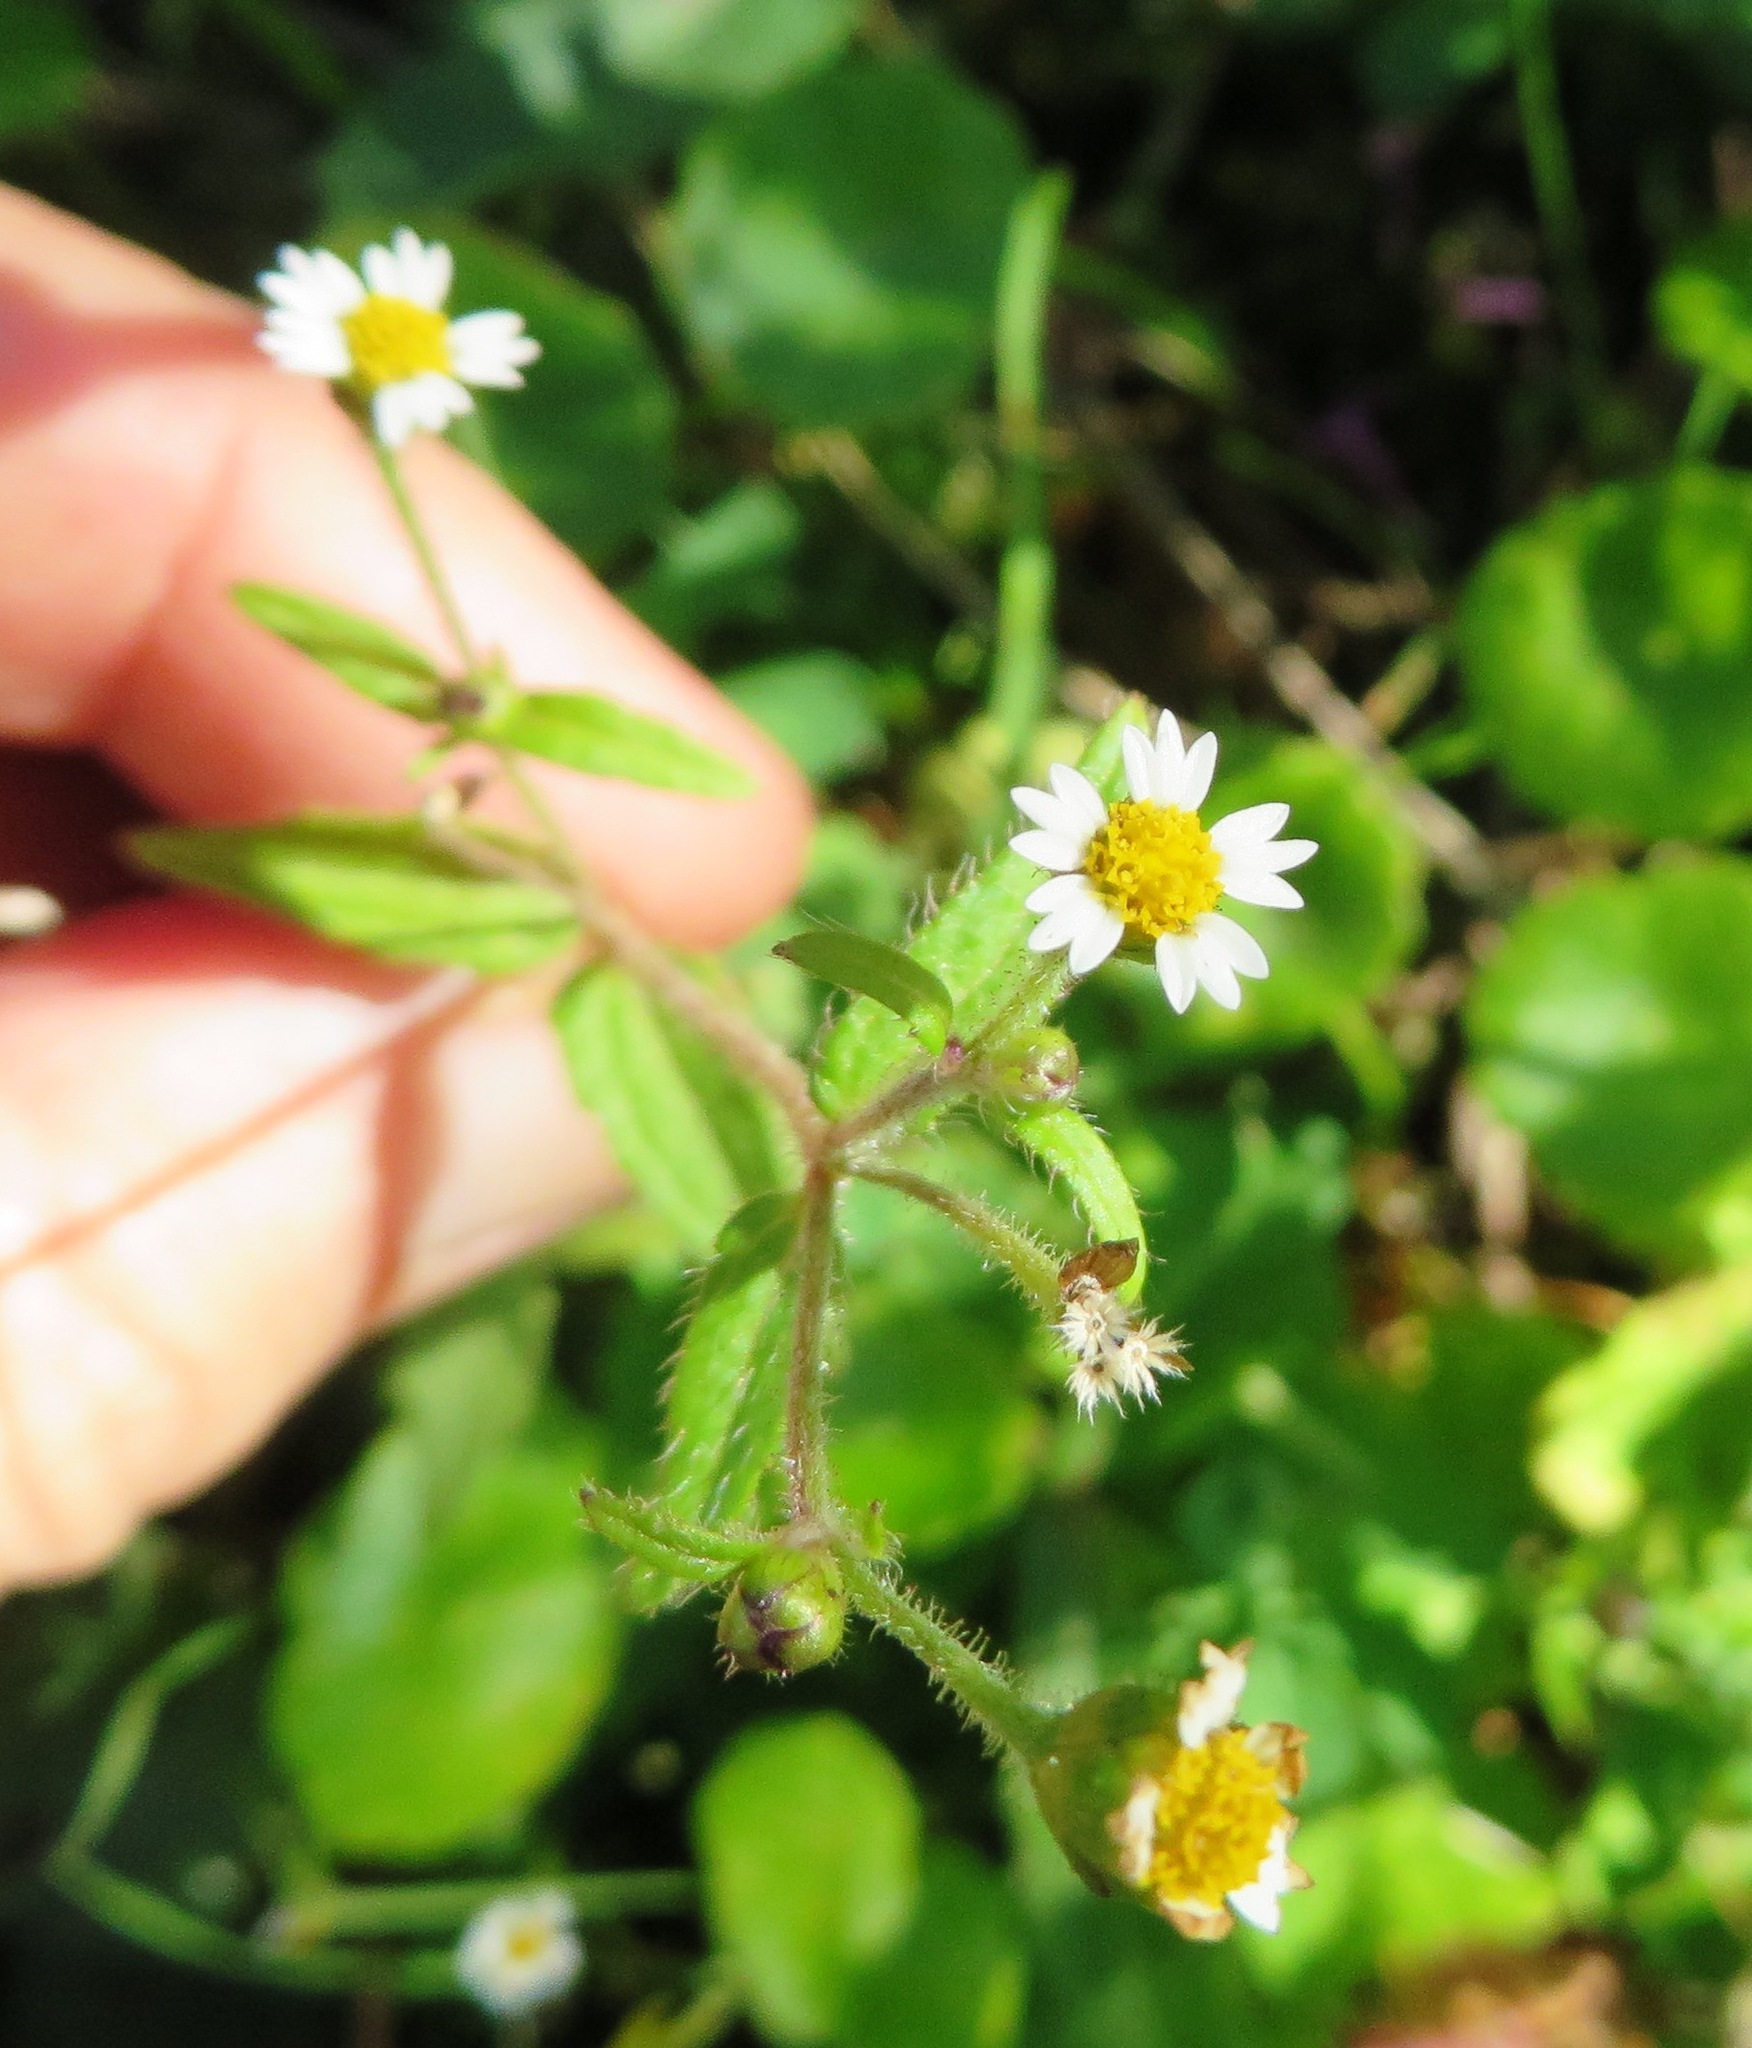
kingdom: Plantae
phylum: Tracheophyta
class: Magnoliopsida
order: Asterales
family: Asteraceae
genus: Galinsoga
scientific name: Galinsoga quadriradiata
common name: Shaggy soldier
